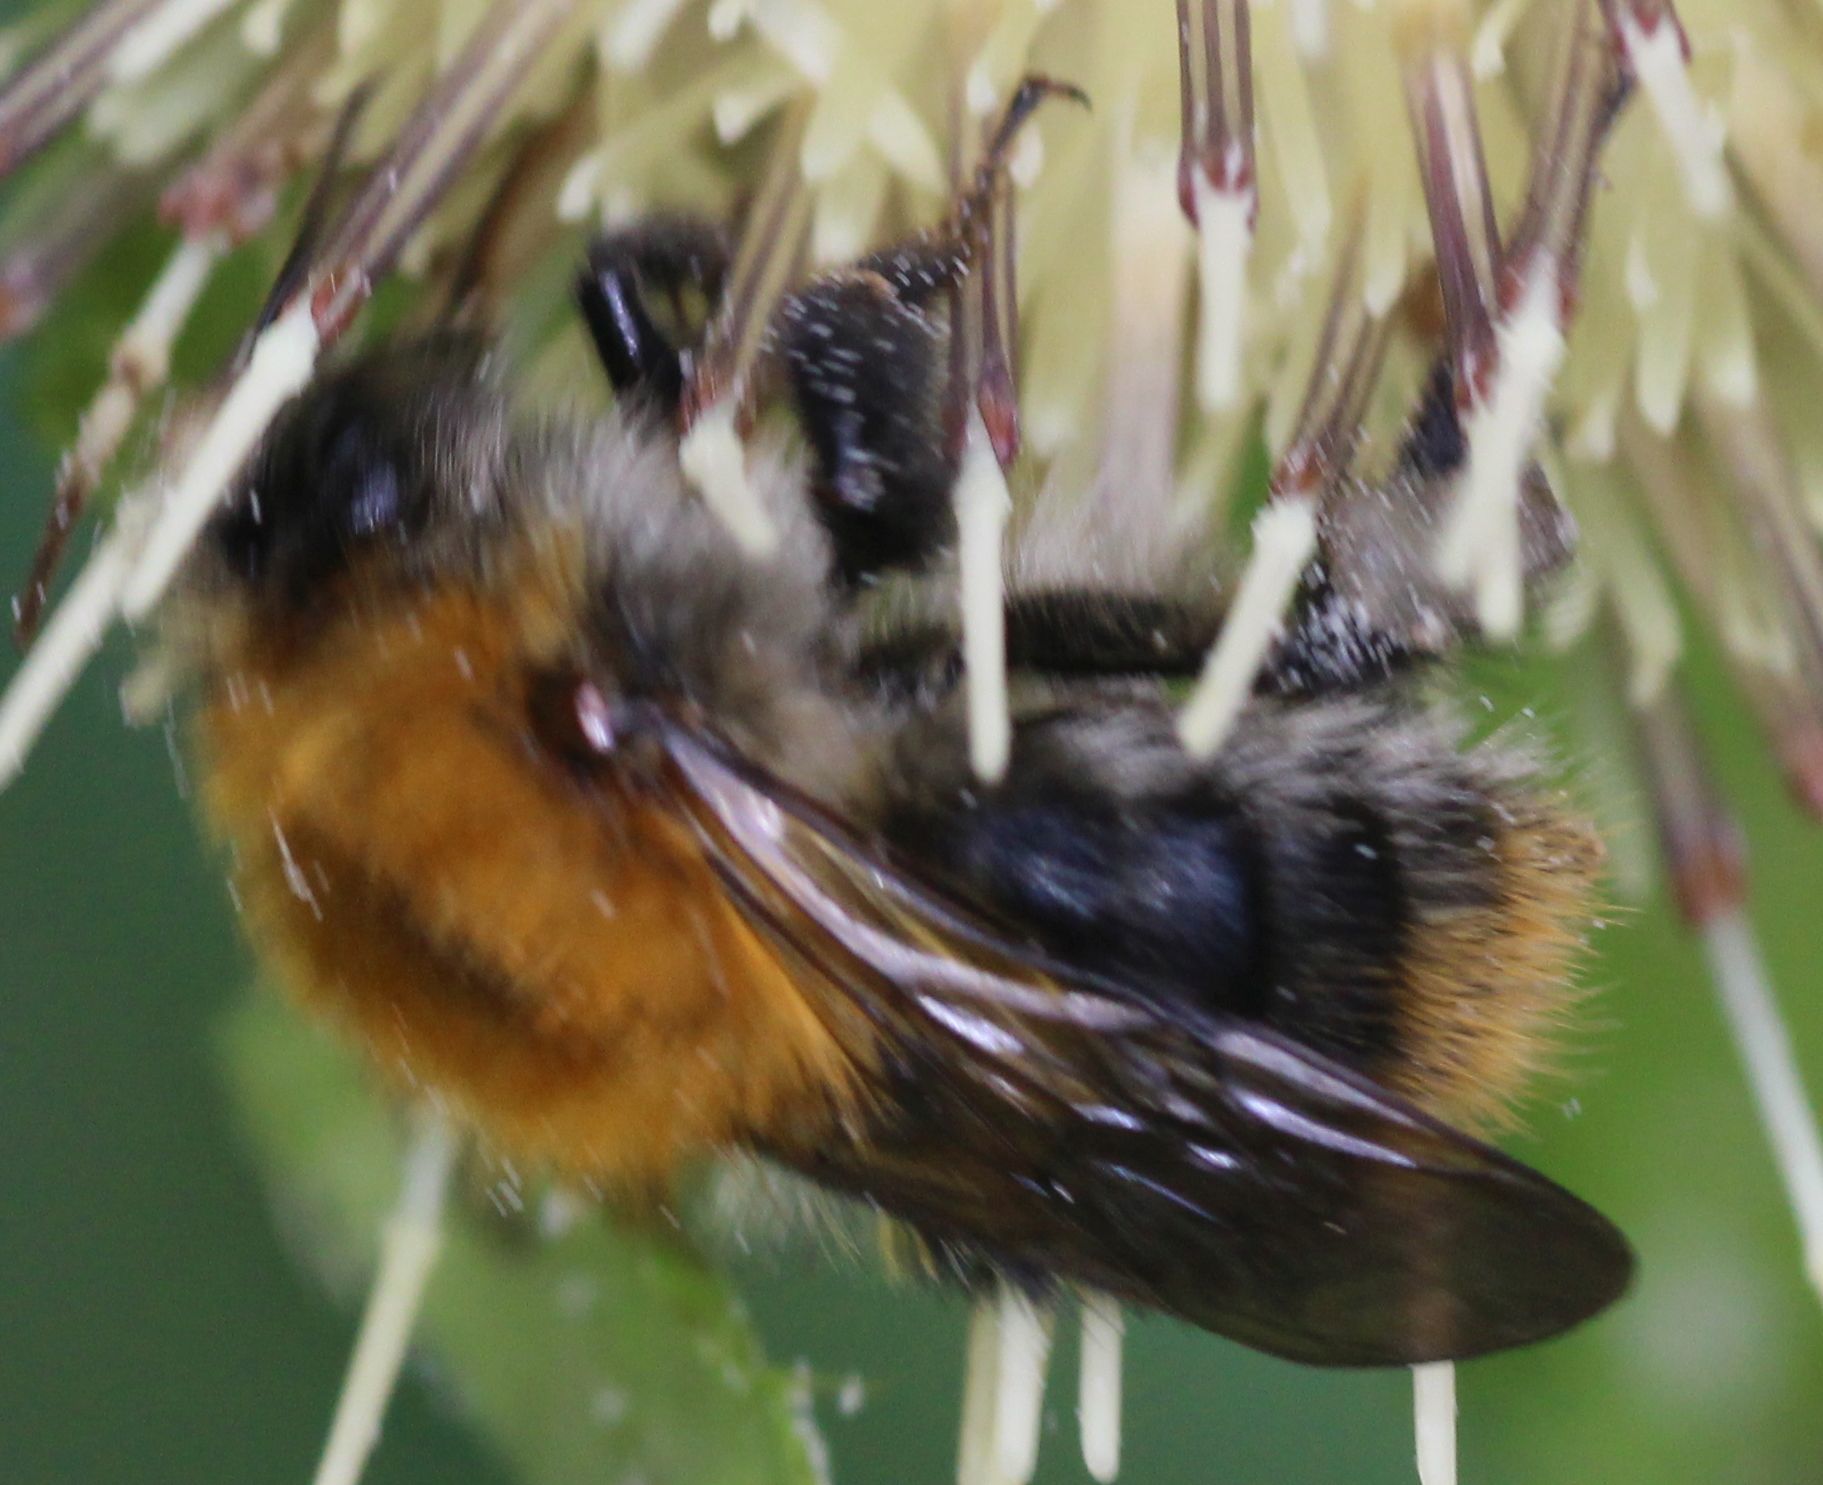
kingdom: Animalia
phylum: Arthropoda
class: Insecta
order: Hymenoptera
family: Apidae
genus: Bombus
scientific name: Bombus pascuorum
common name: Common carder bee
